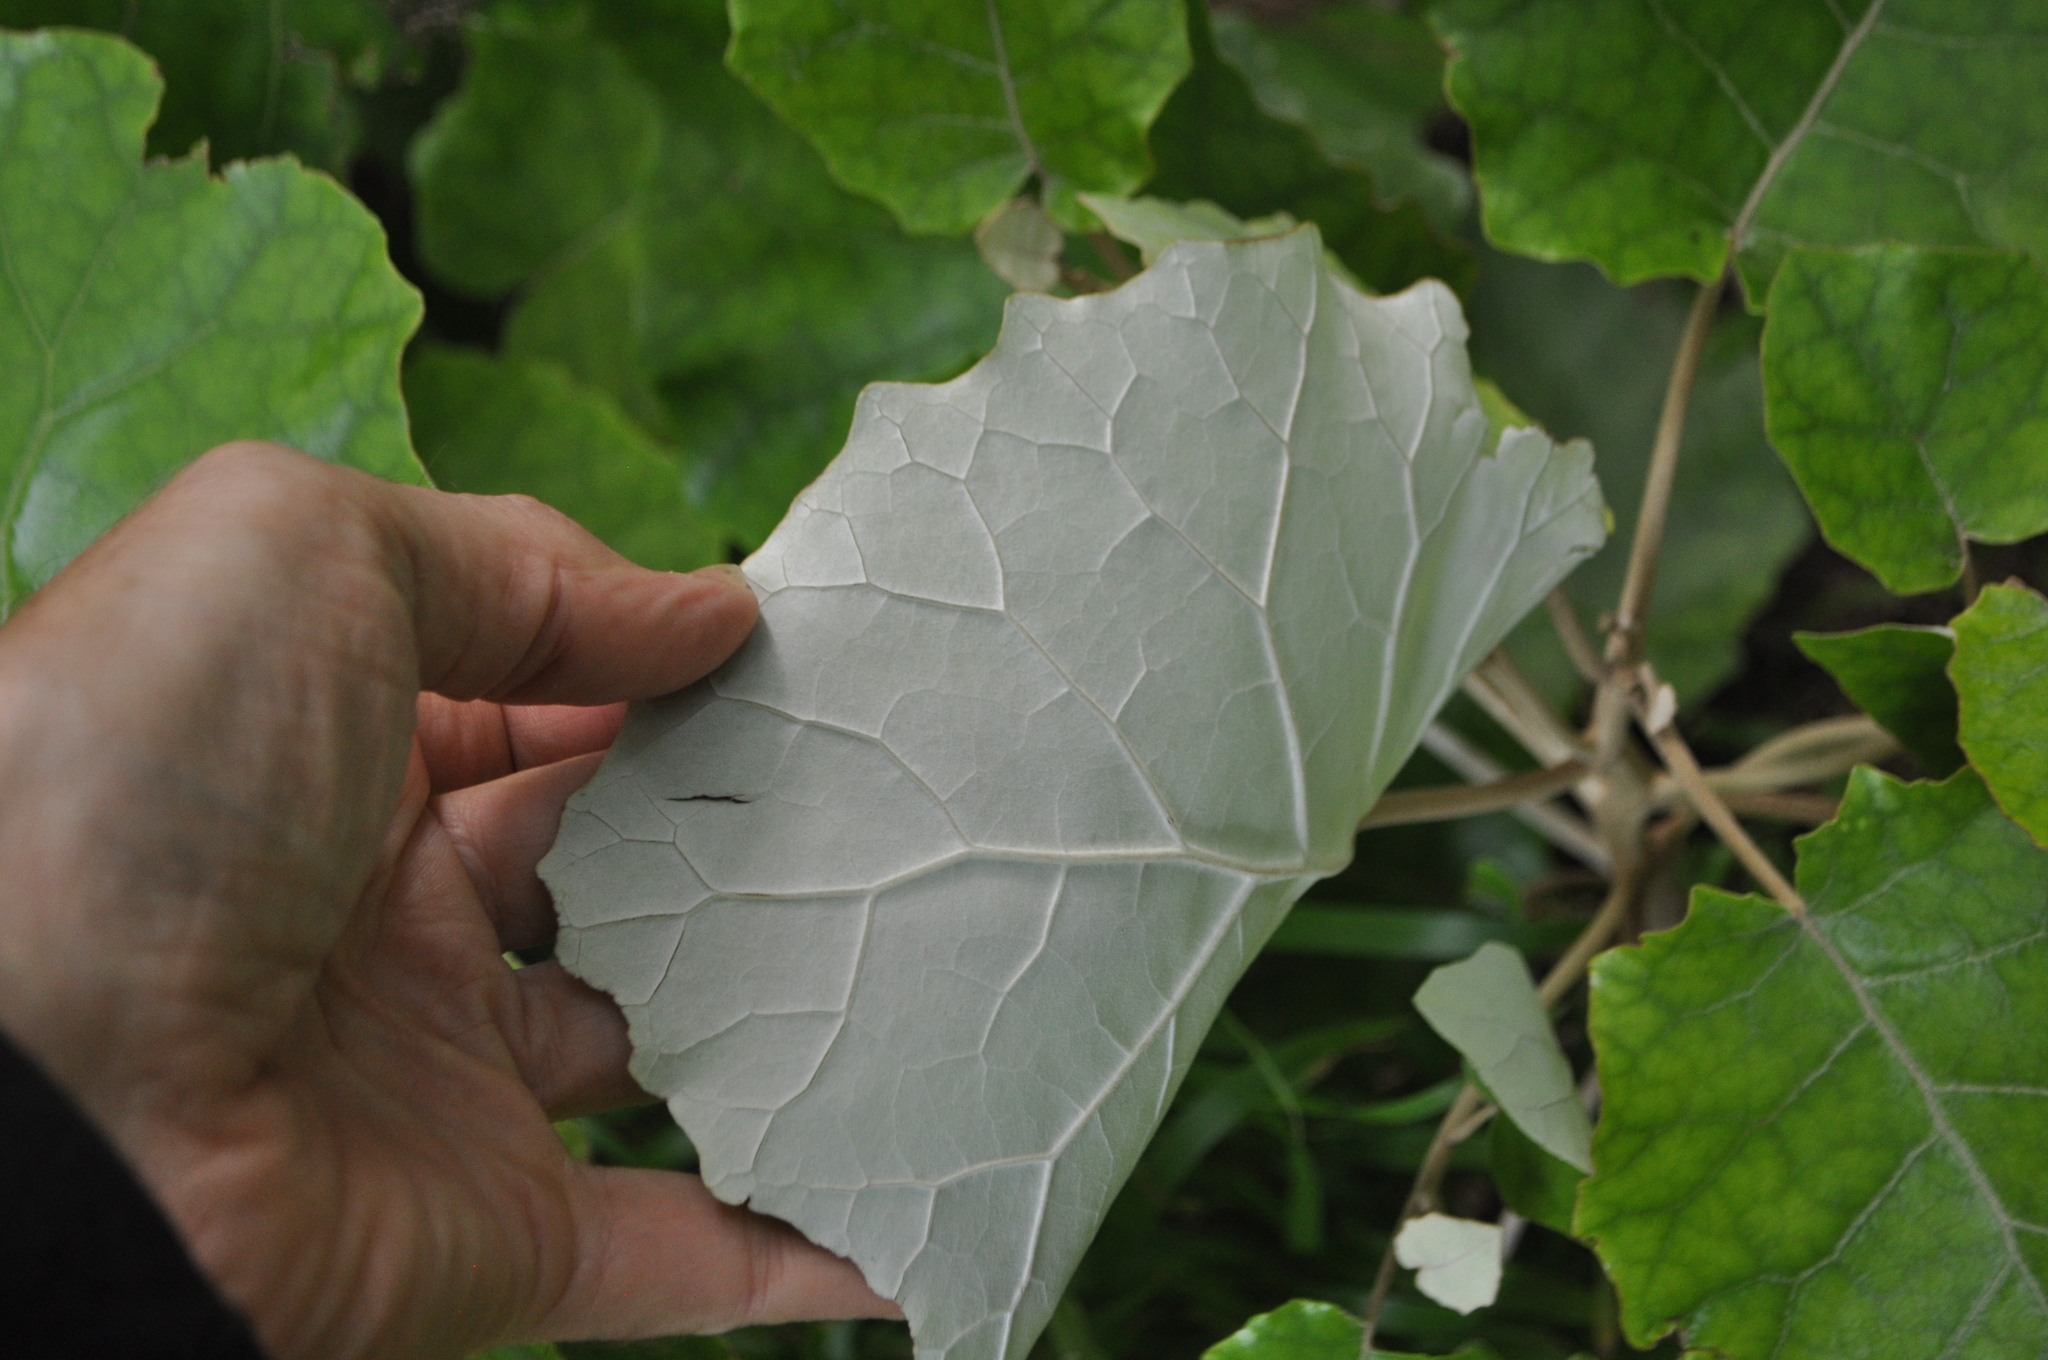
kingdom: Plantae
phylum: Tracheophyta
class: Magnoliopsida
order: Asterales
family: Asteraceae
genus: Brachyglottis
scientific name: Brachyglottis repanda
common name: Hedge ragwort
